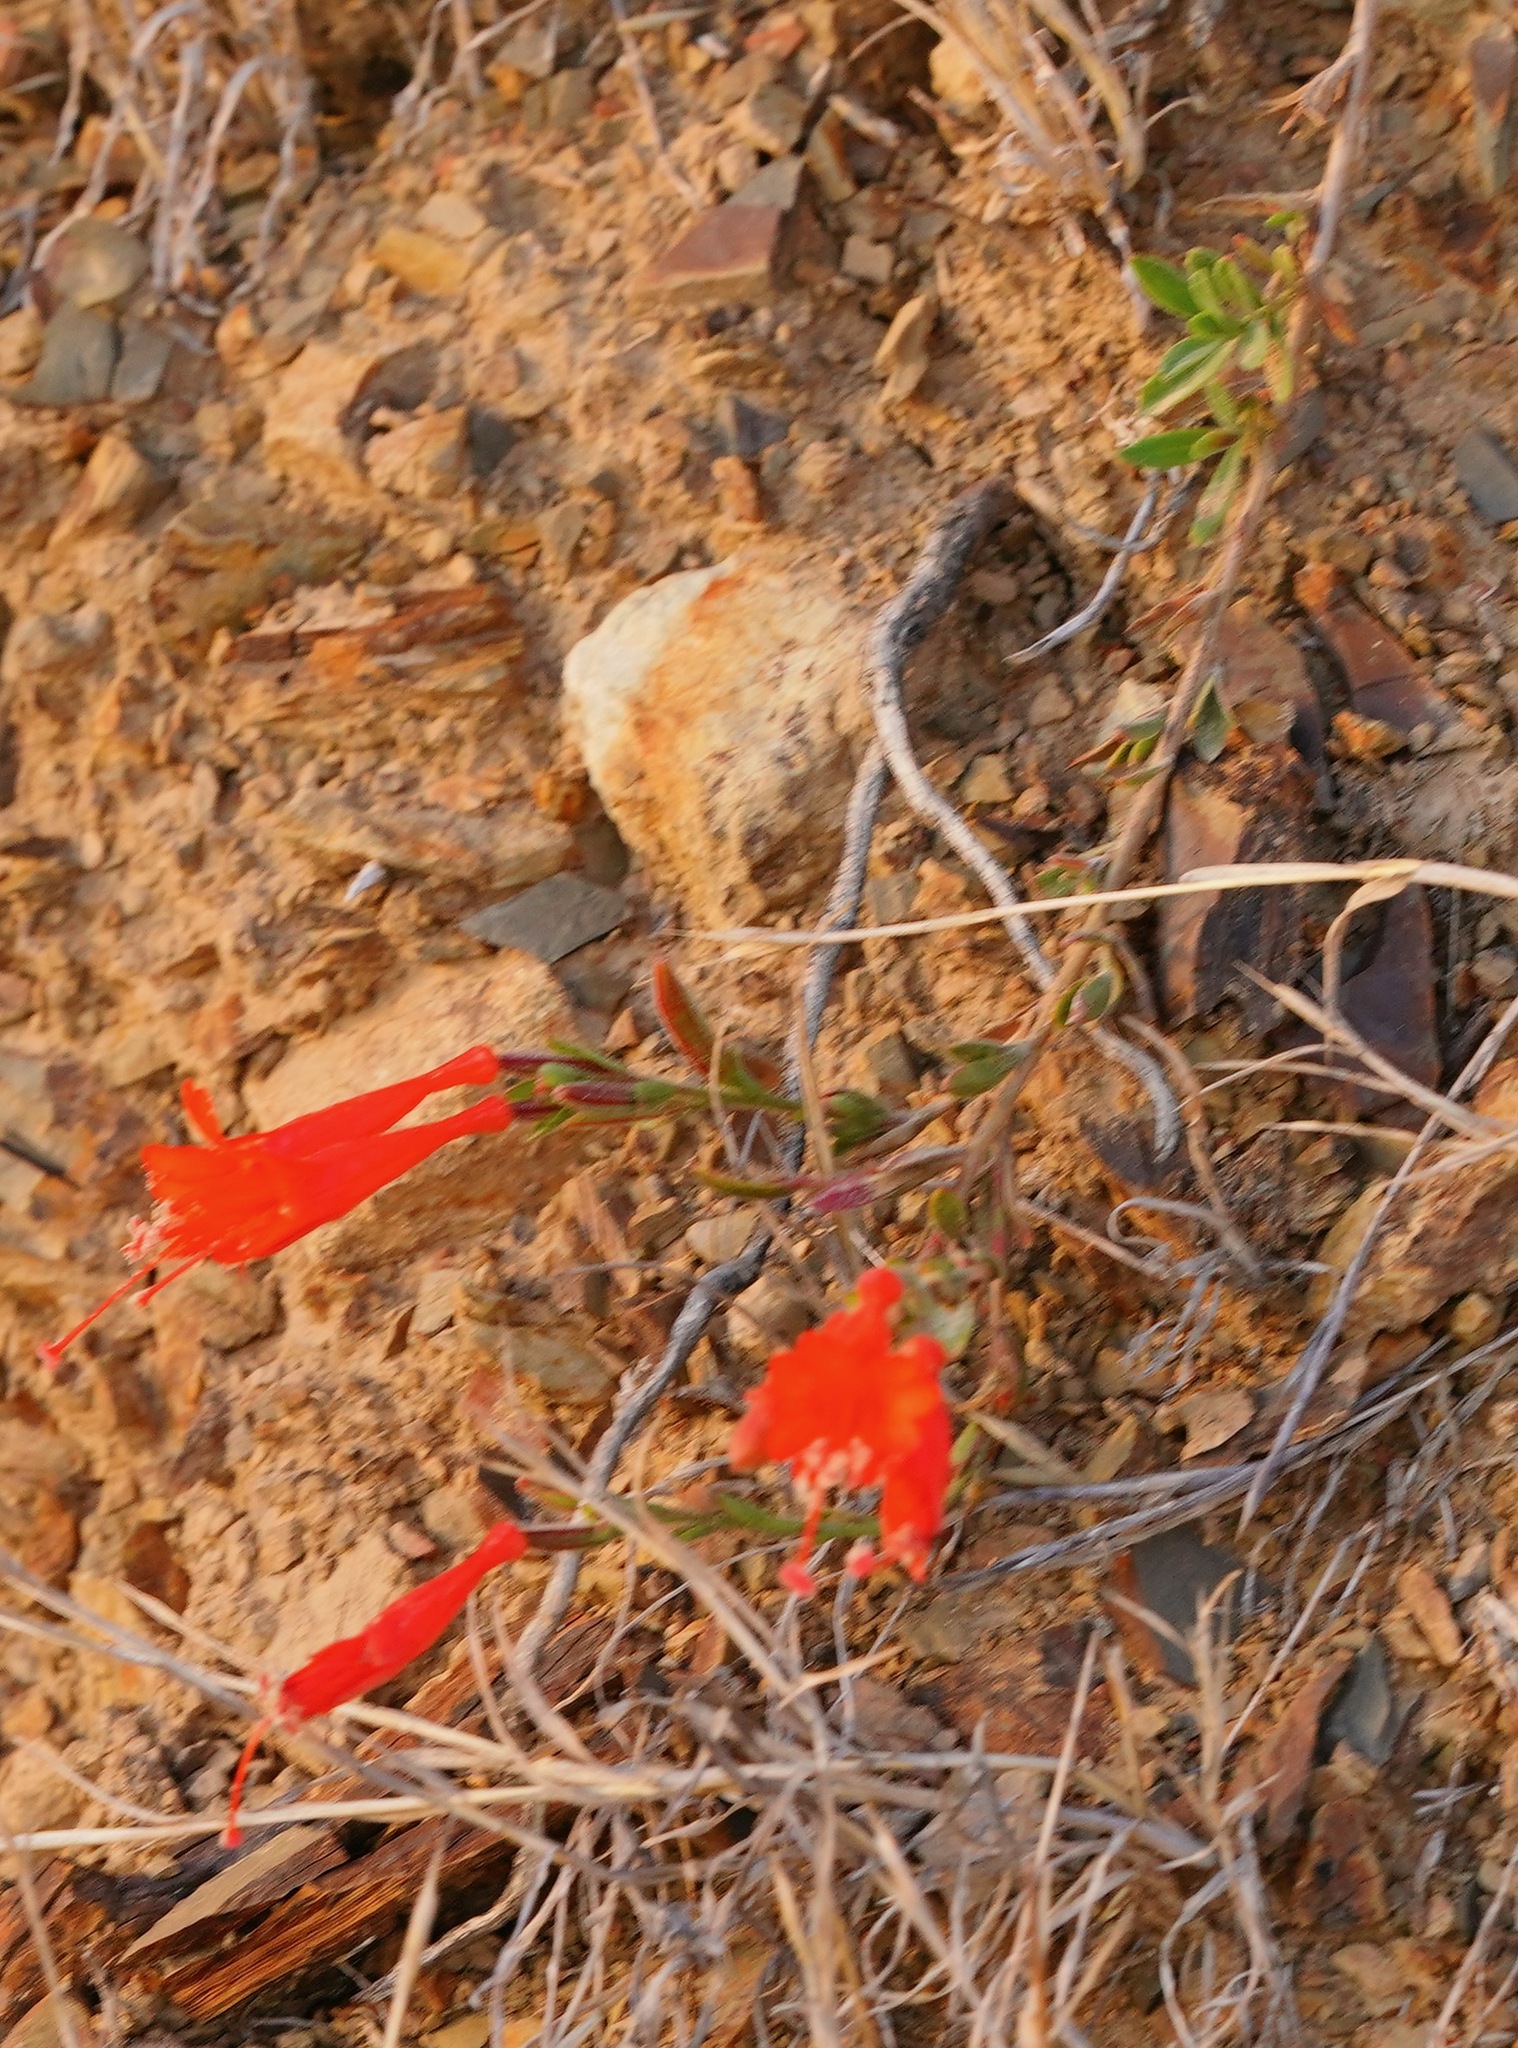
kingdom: Plantae
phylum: Tracheophyta
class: Magnoliopsida
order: Myrtales
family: Onagraceae
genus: Epilobium
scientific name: Epilobium canum
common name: California-fuchsia
